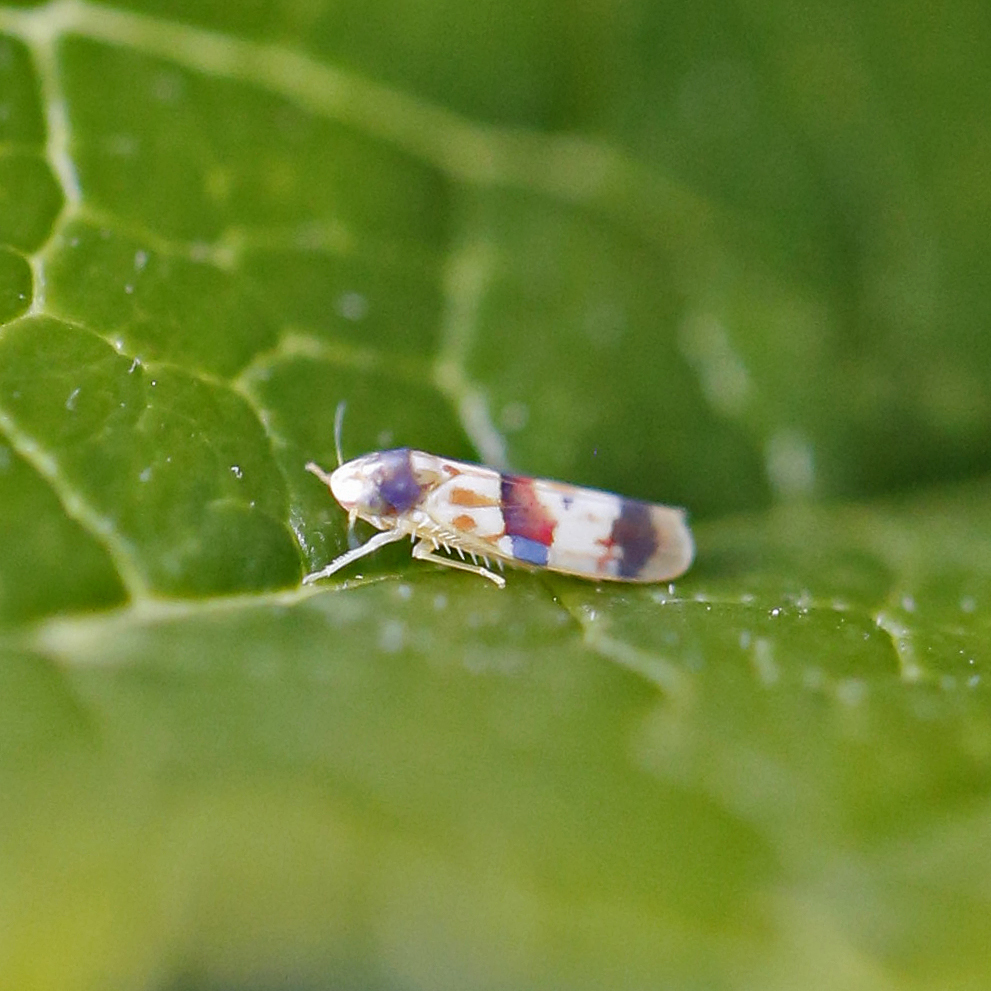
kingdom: Animalia
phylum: Arthropoda
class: Insecta
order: Hemiptera
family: Cicadellidae
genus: Erythroneura
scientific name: Erythroneura integra
